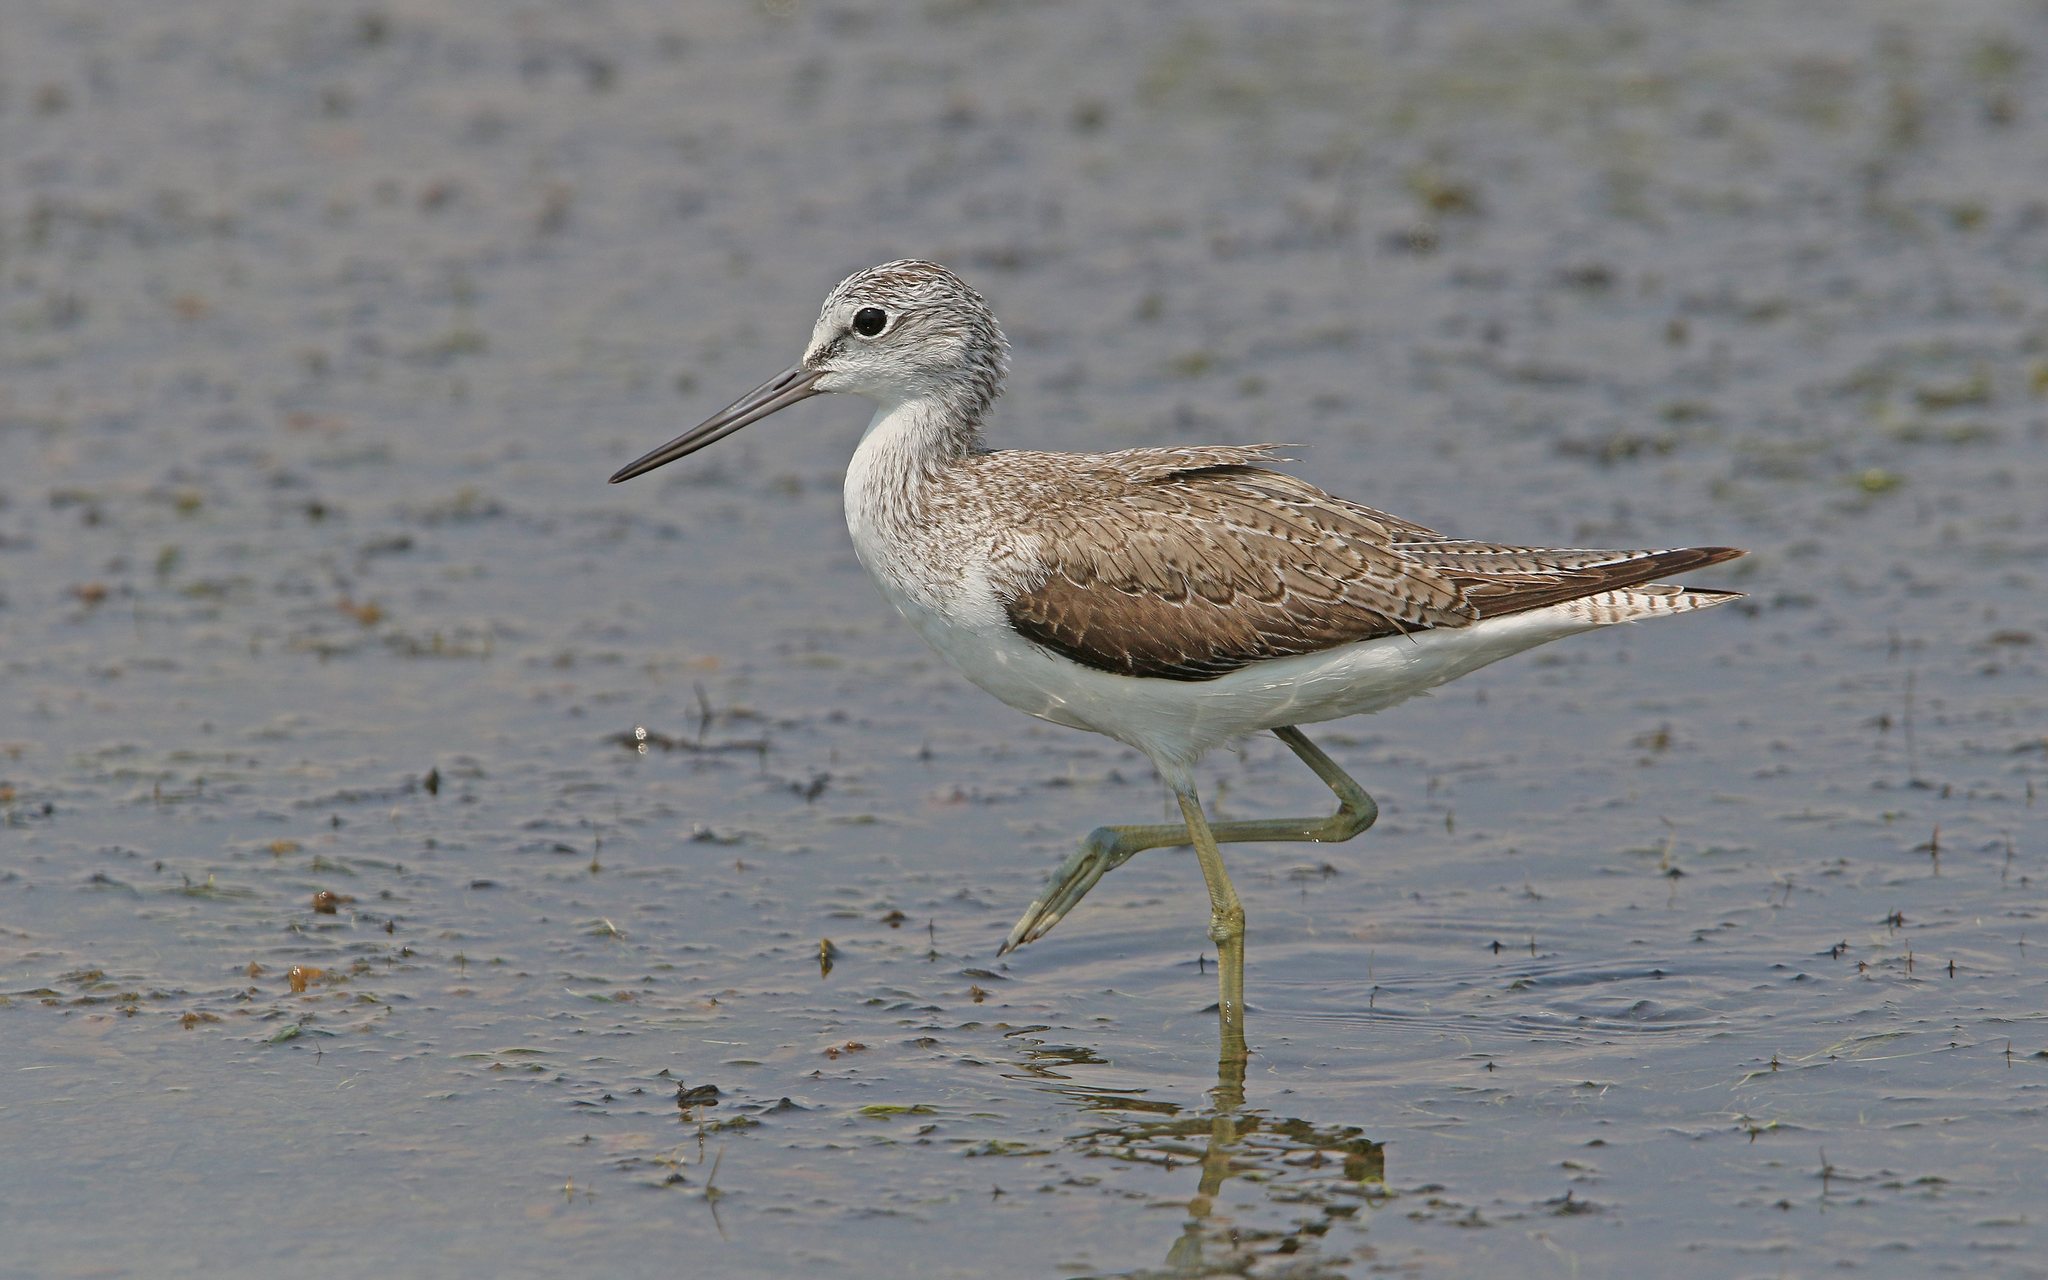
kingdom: Animalia
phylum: Chordata
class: Aves
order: Charadriiformes
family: Scolopacidae
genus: Tringa
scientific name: Tringa nebularia
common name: Common greenshank
